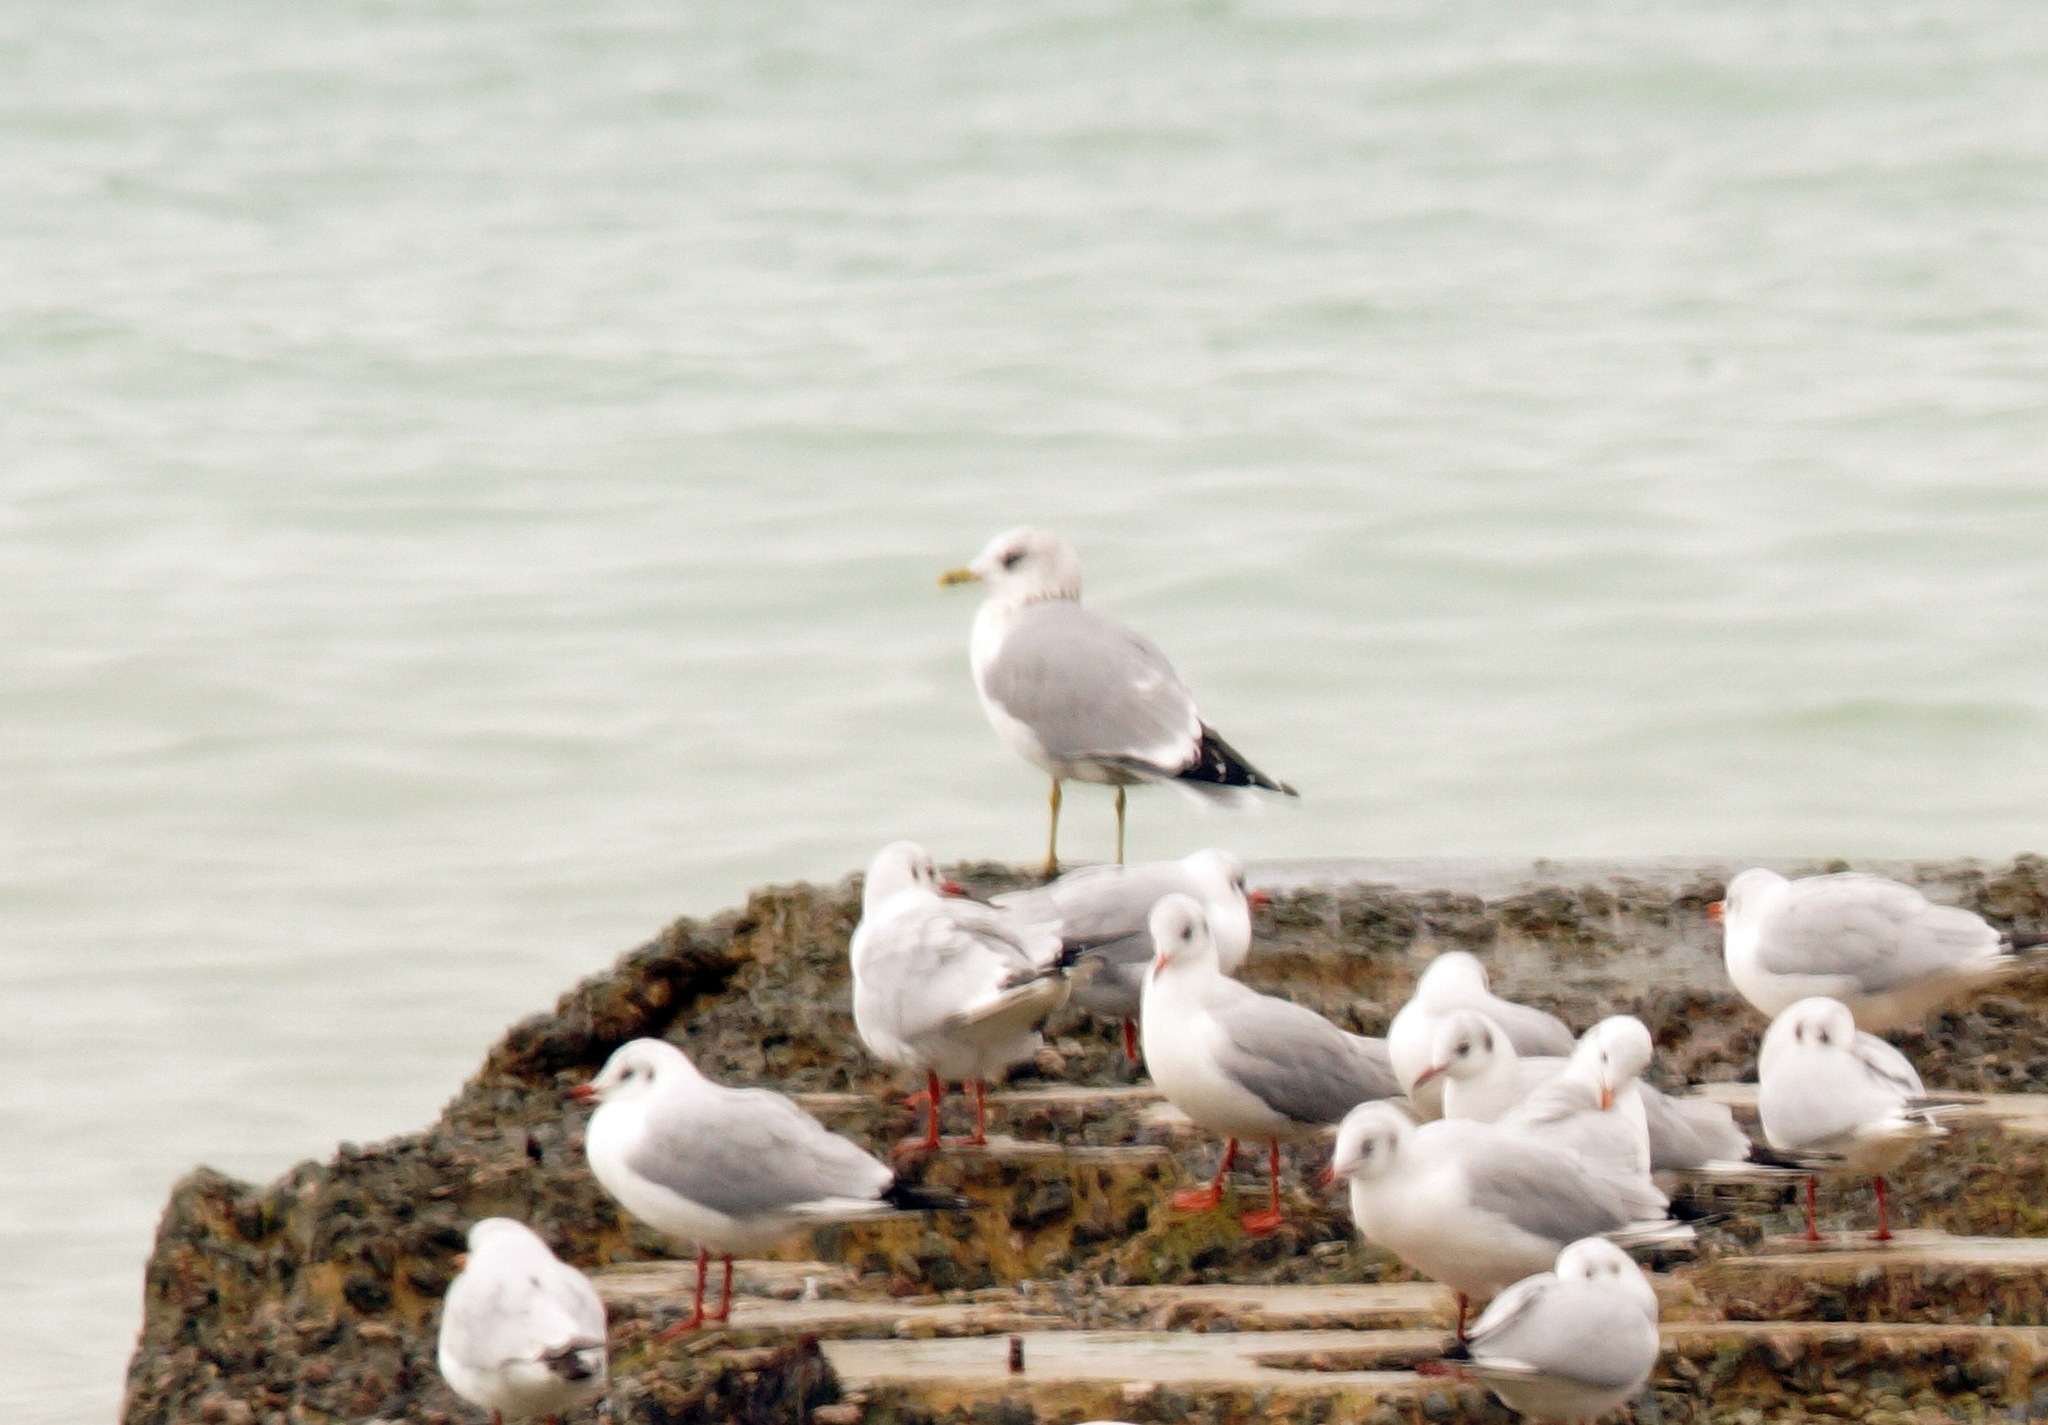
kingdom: Animalia
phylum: Chordata
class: Aves
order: Charadriiformes
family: Laridae
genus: Larus
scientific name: Larus canus
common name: Mew gull
